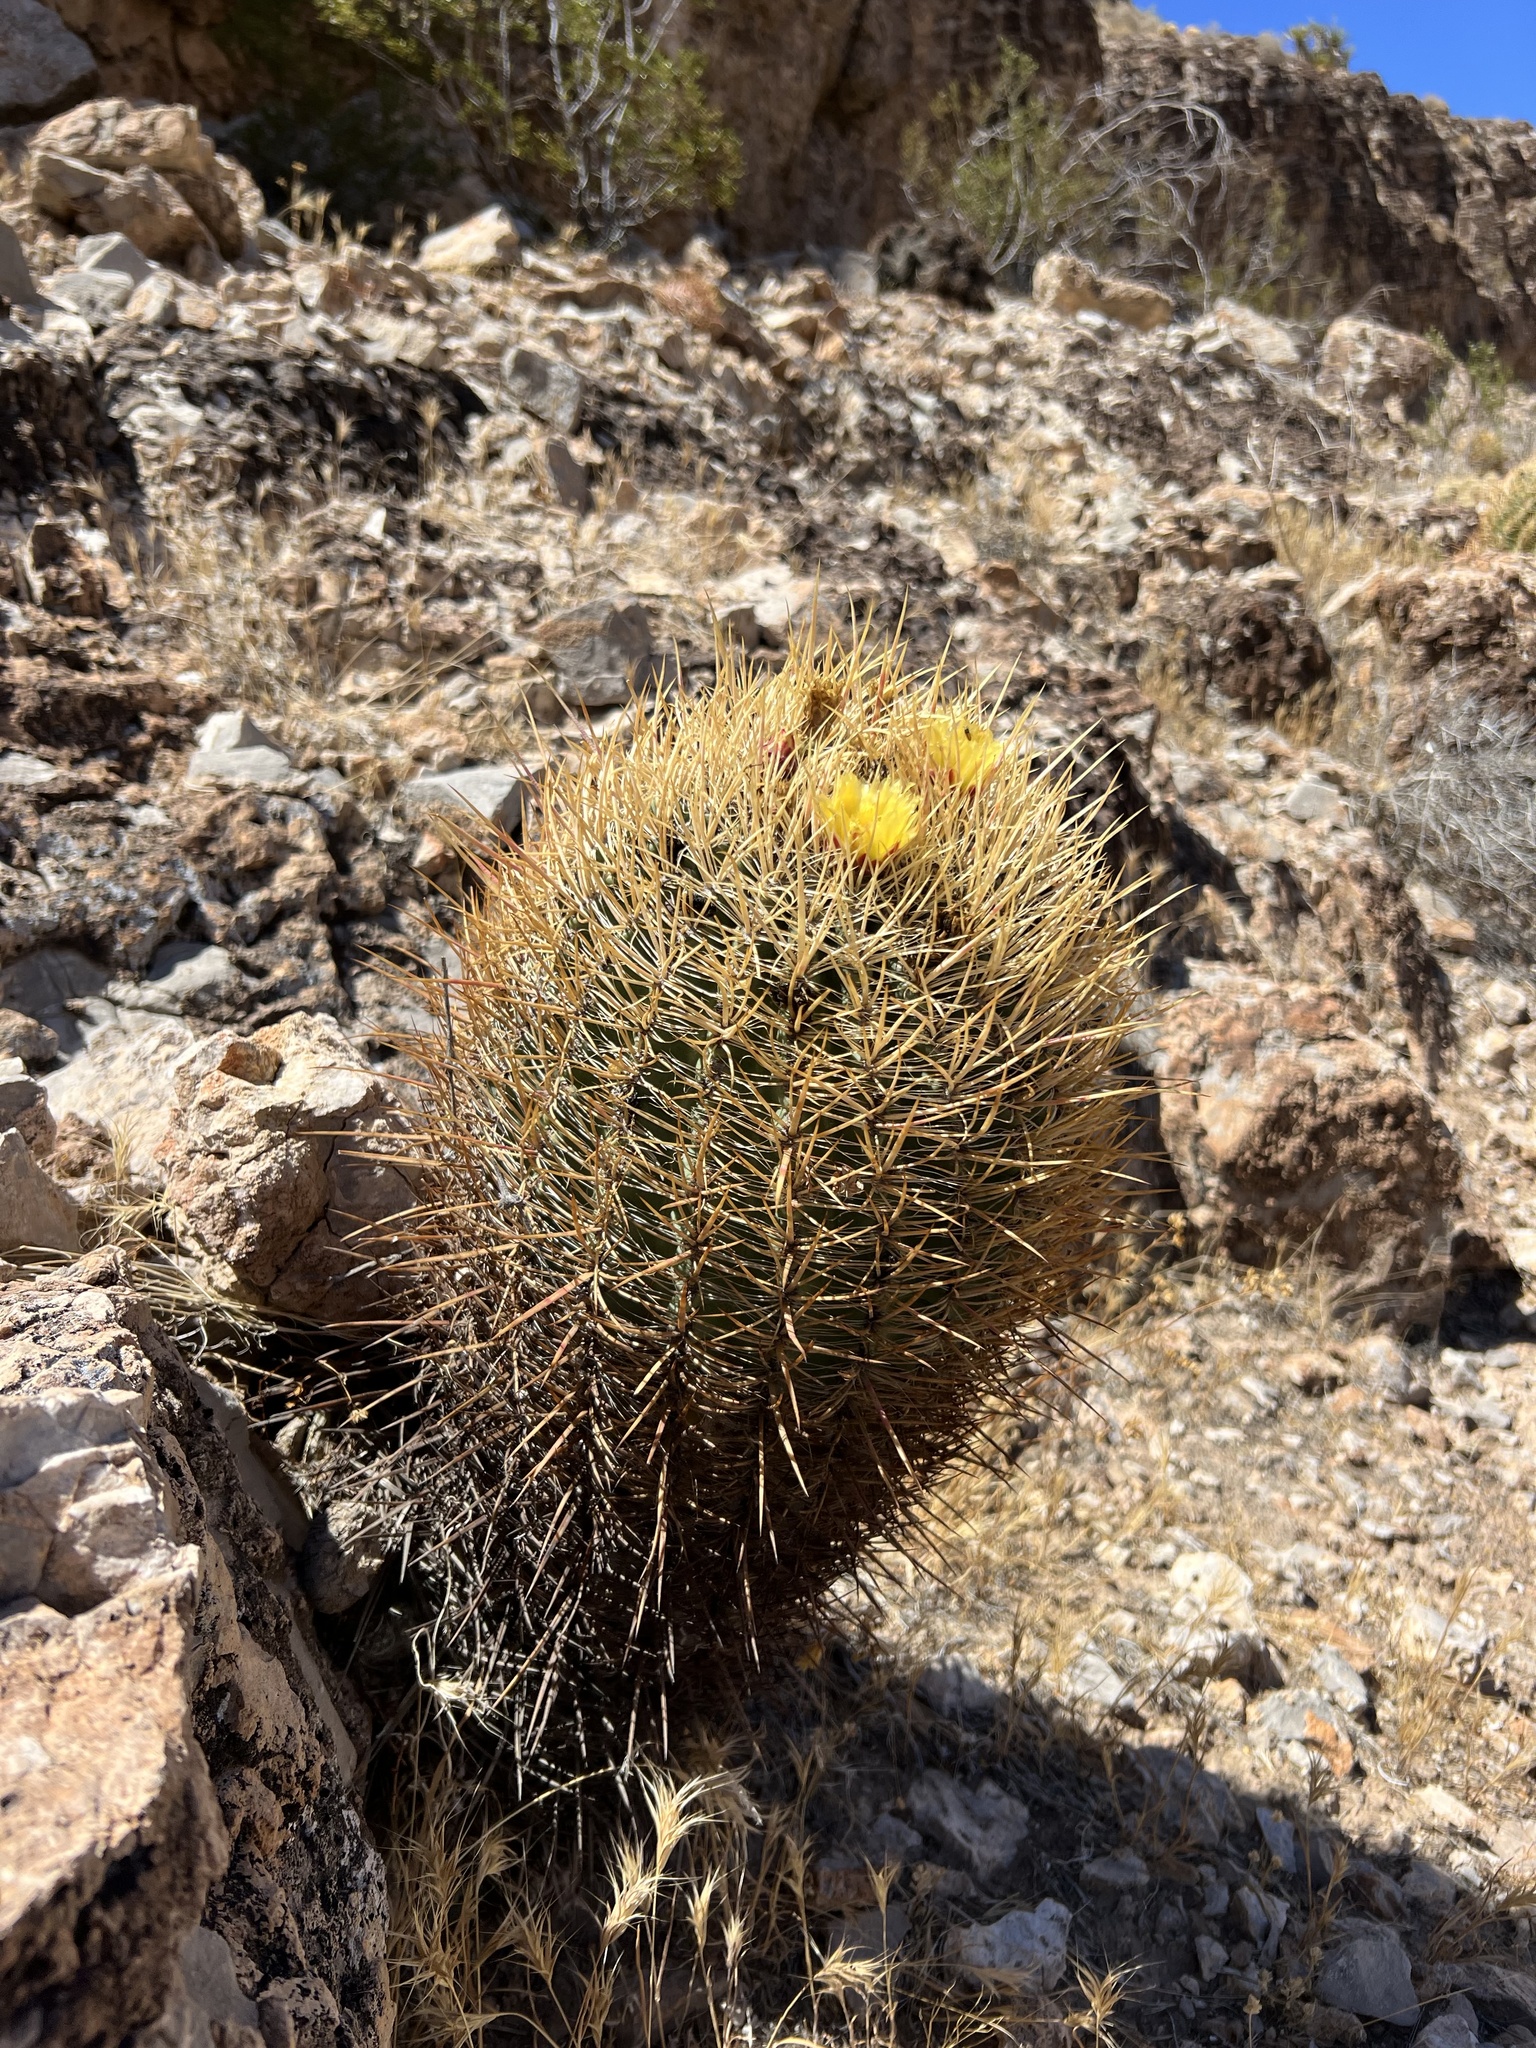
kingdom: Plantae
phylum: Tracheophyta
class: Magnoliopsida
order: Caryophyllales
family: Cactaceae
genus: Ferocactus
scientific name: Ferocactus cylindraceus
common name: California barrel cactus
